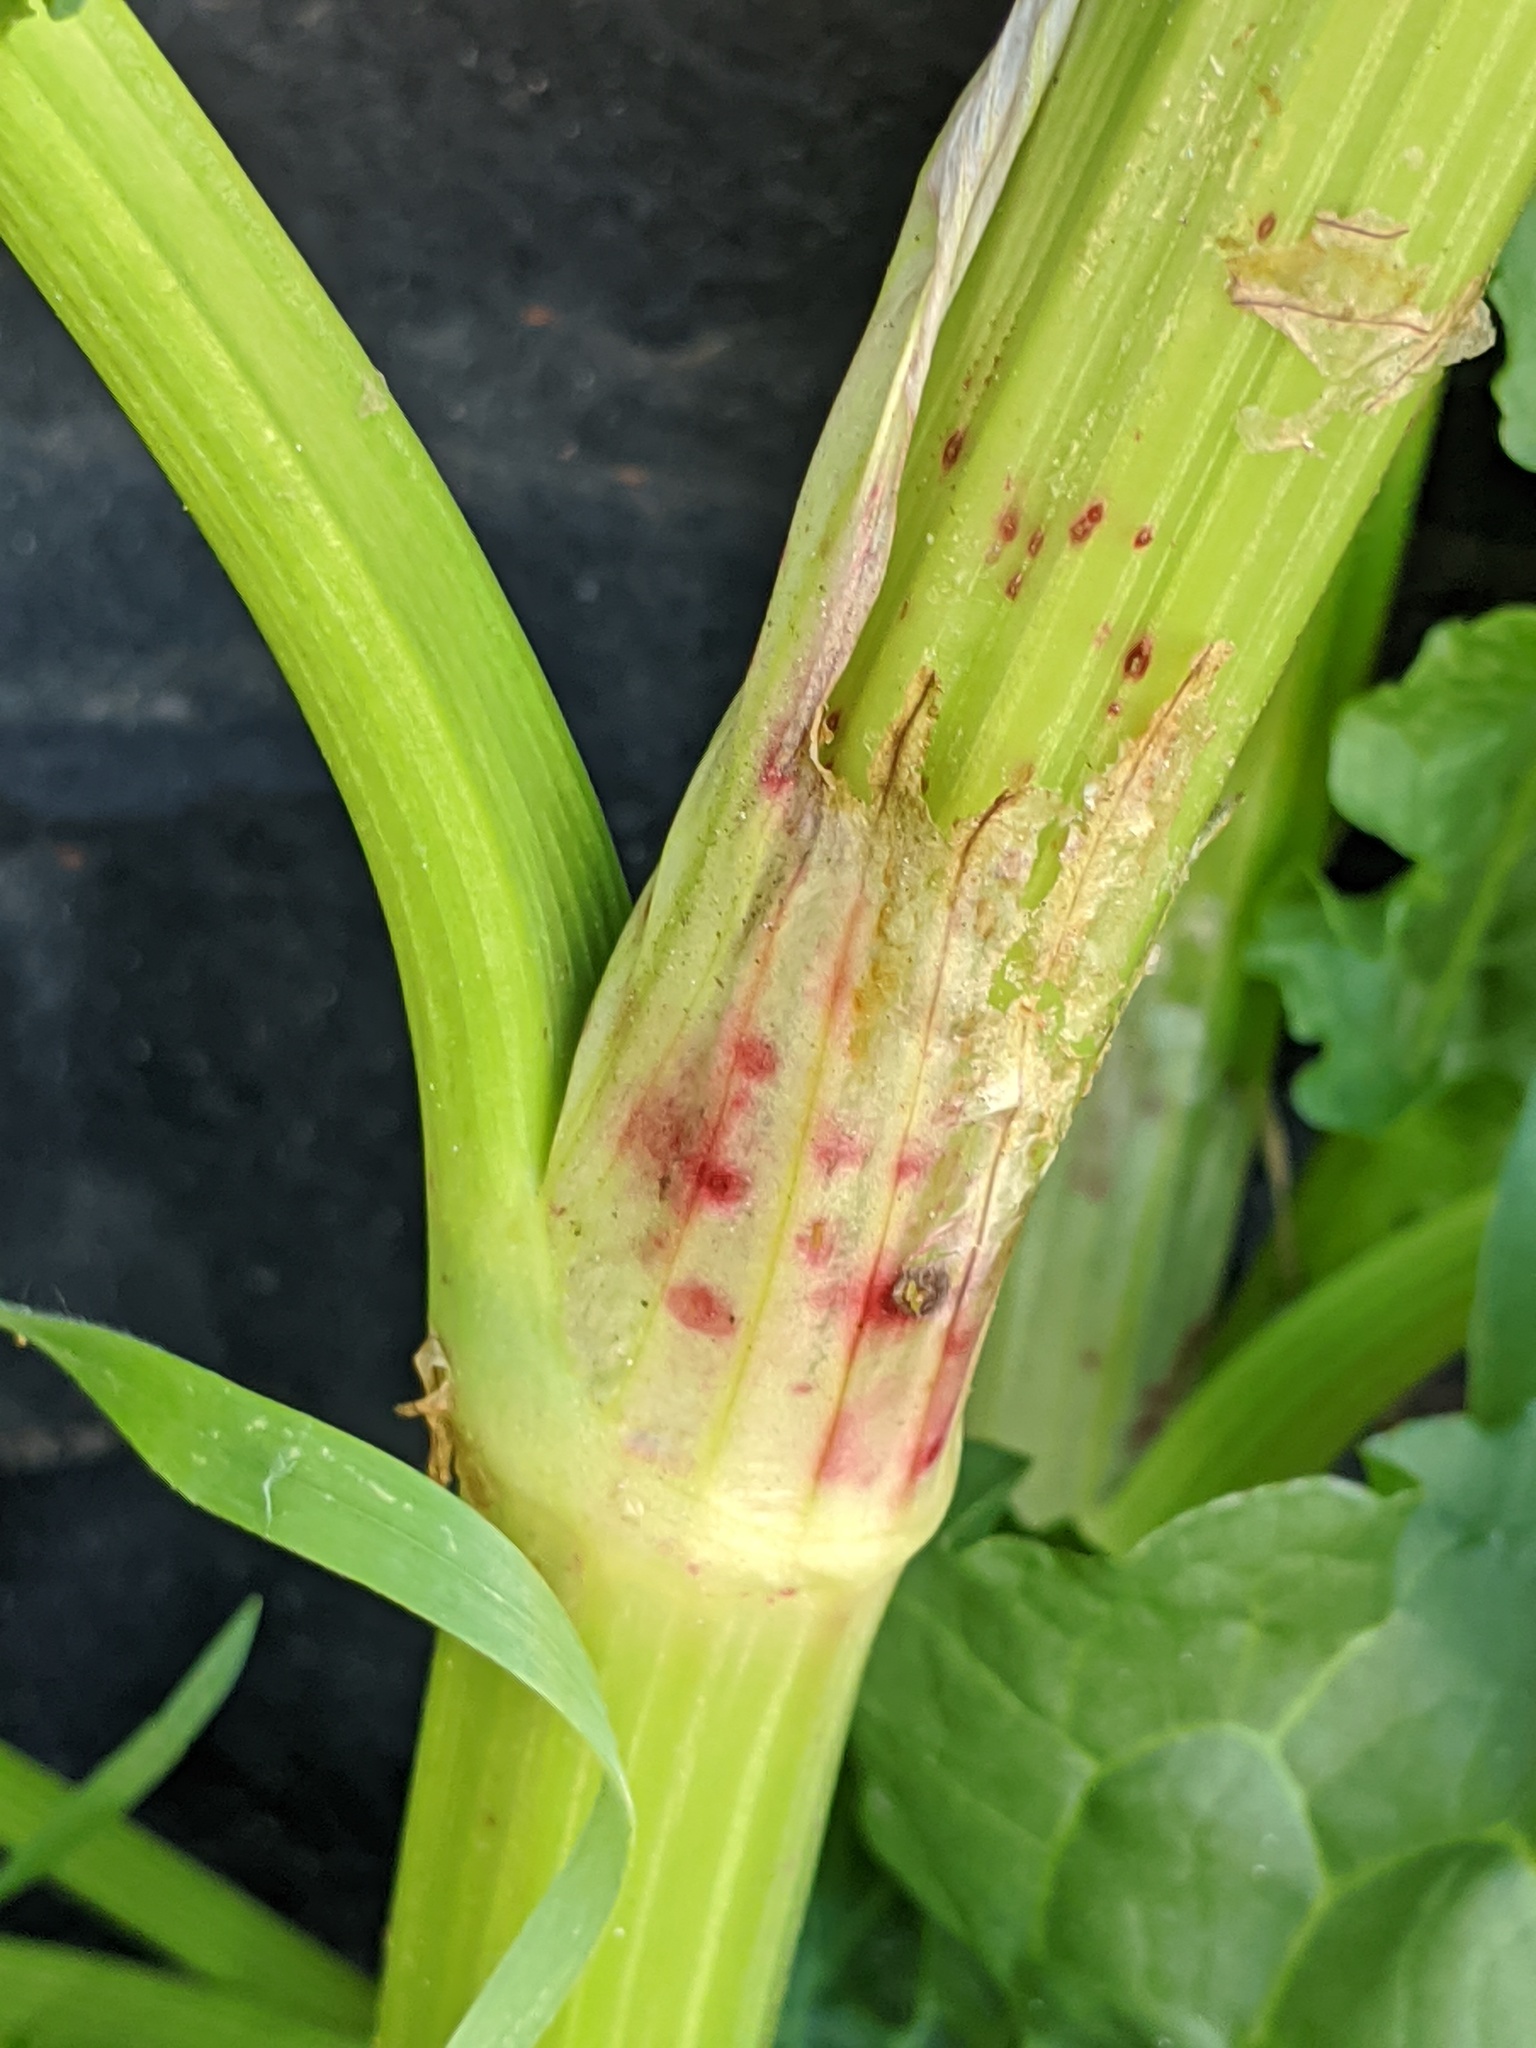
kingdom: Fungi
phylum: Ascomycota
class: Dothideomycetes
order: Mycosphaerellales
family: Mycosphaerellaceae
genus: Ramularia
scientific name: Ramularia rubella
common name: Red dock spot
